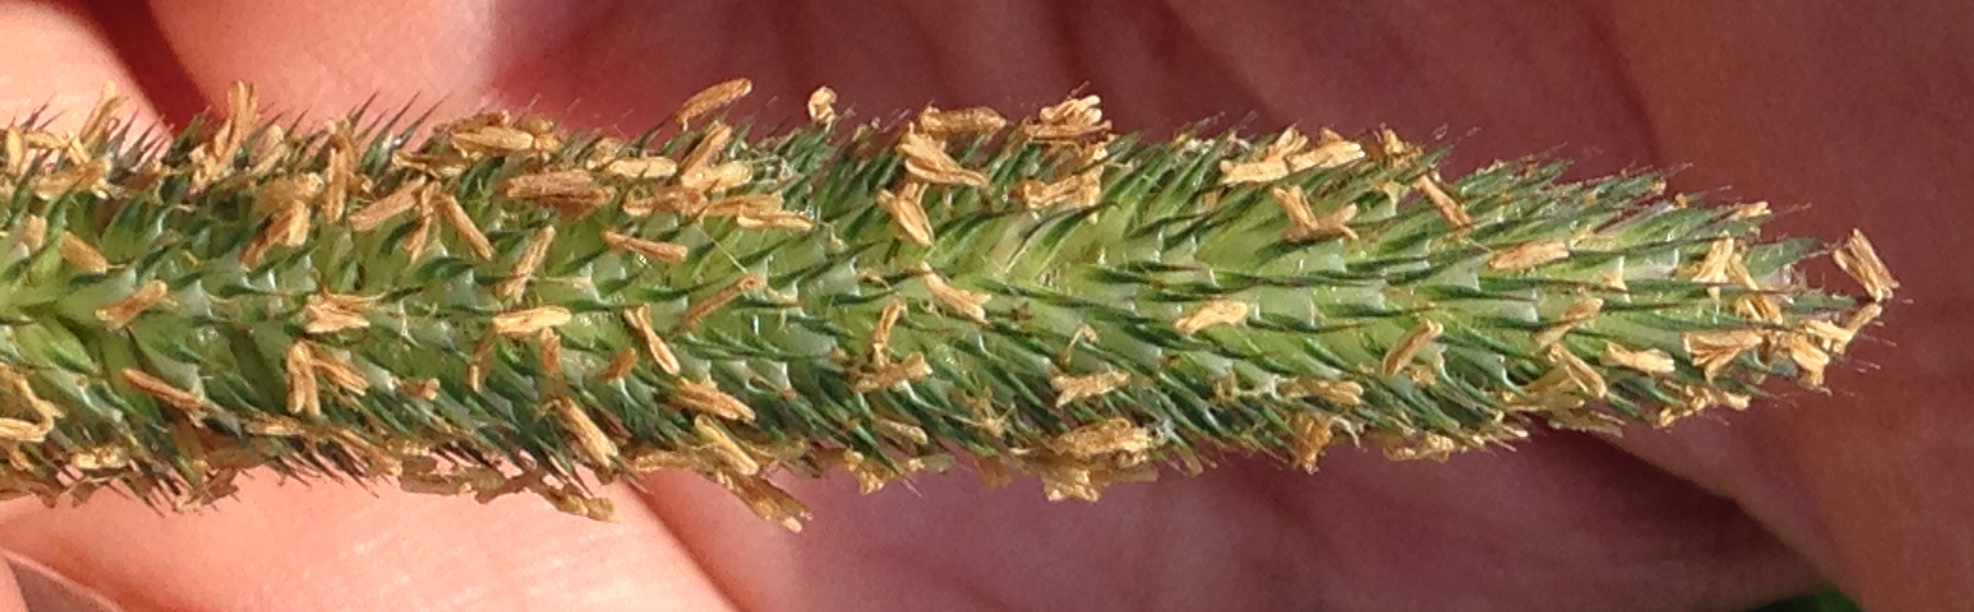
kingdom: Plantae
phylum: Tracheophyta
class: Liliopsida
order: Poales
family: Poaceae
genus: Phleum
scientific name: Phleum pratense
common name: Timothy grass
